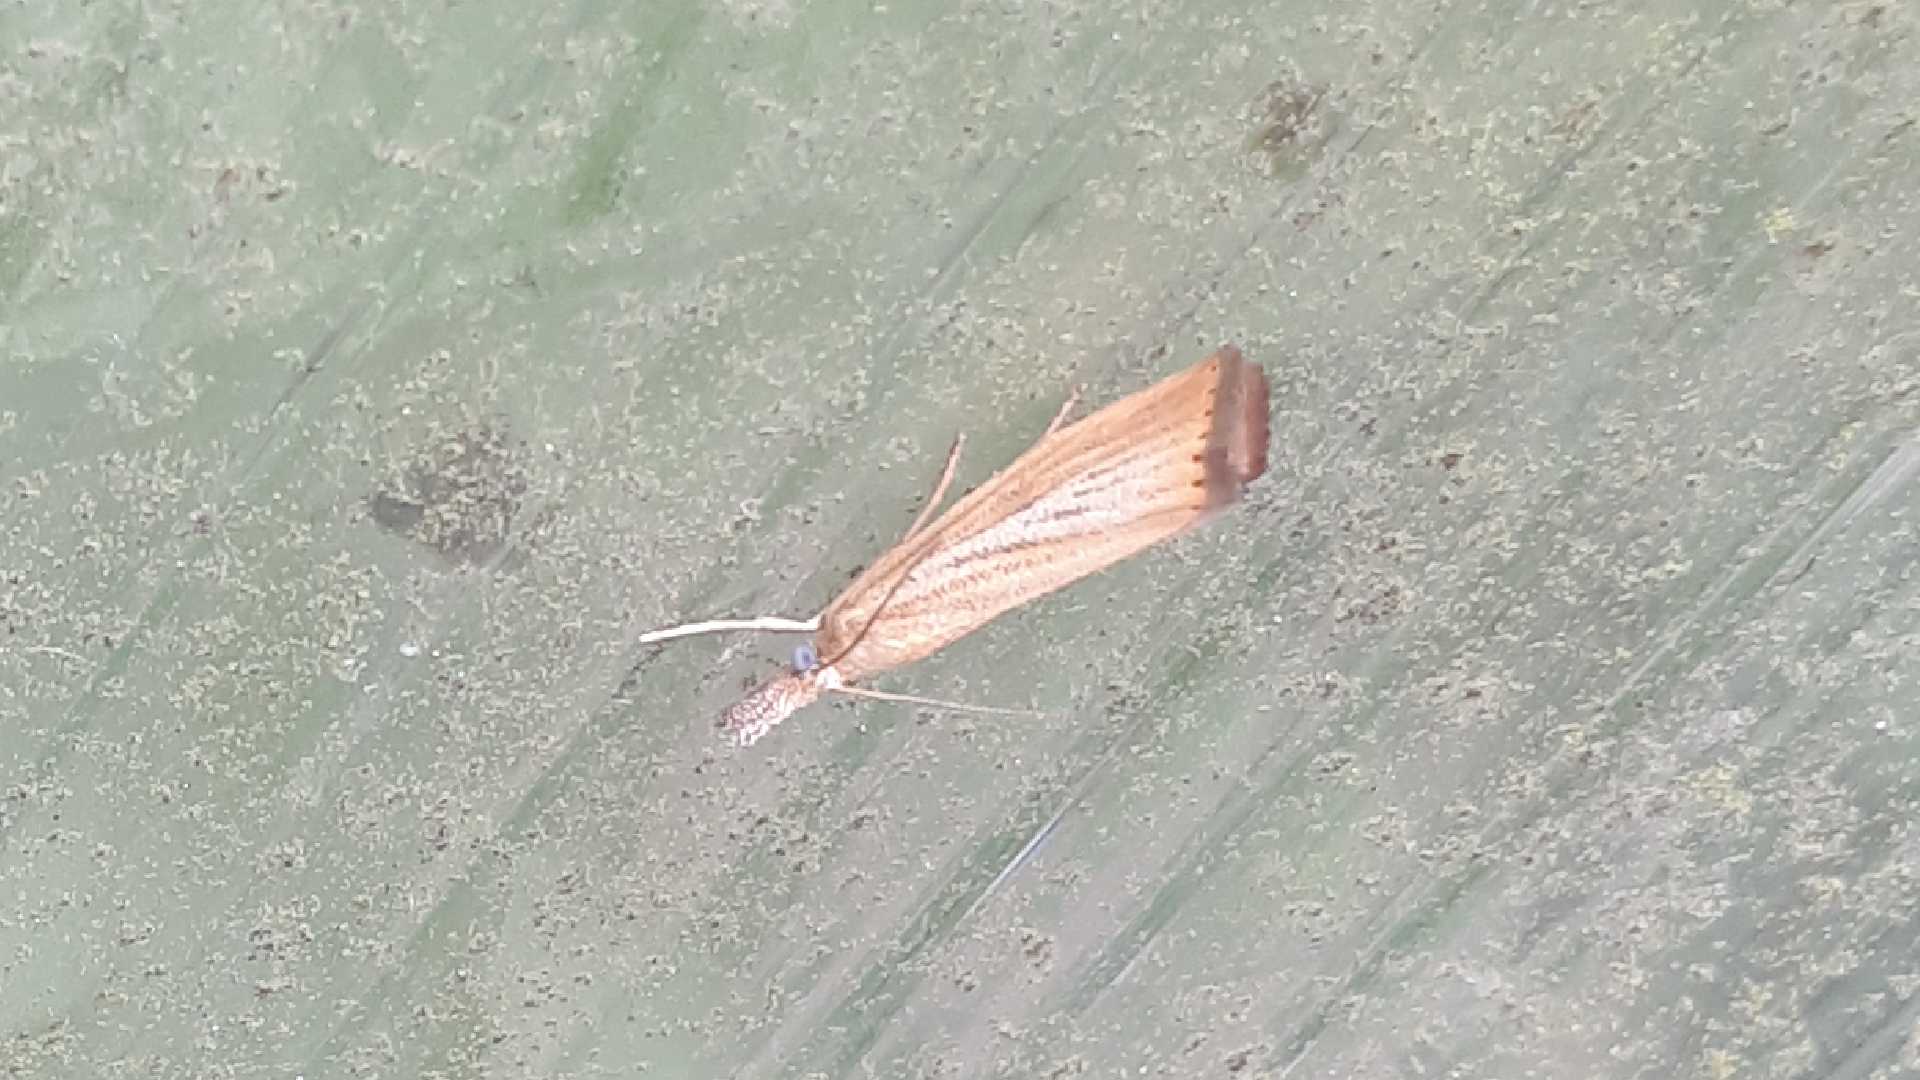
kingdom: Animalia
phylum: Arthropoda
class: Insecta
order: Lepidoptera
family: Crambidae
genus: Agriphila
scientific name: Agriphila straminella
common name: Straw grass-veneer
